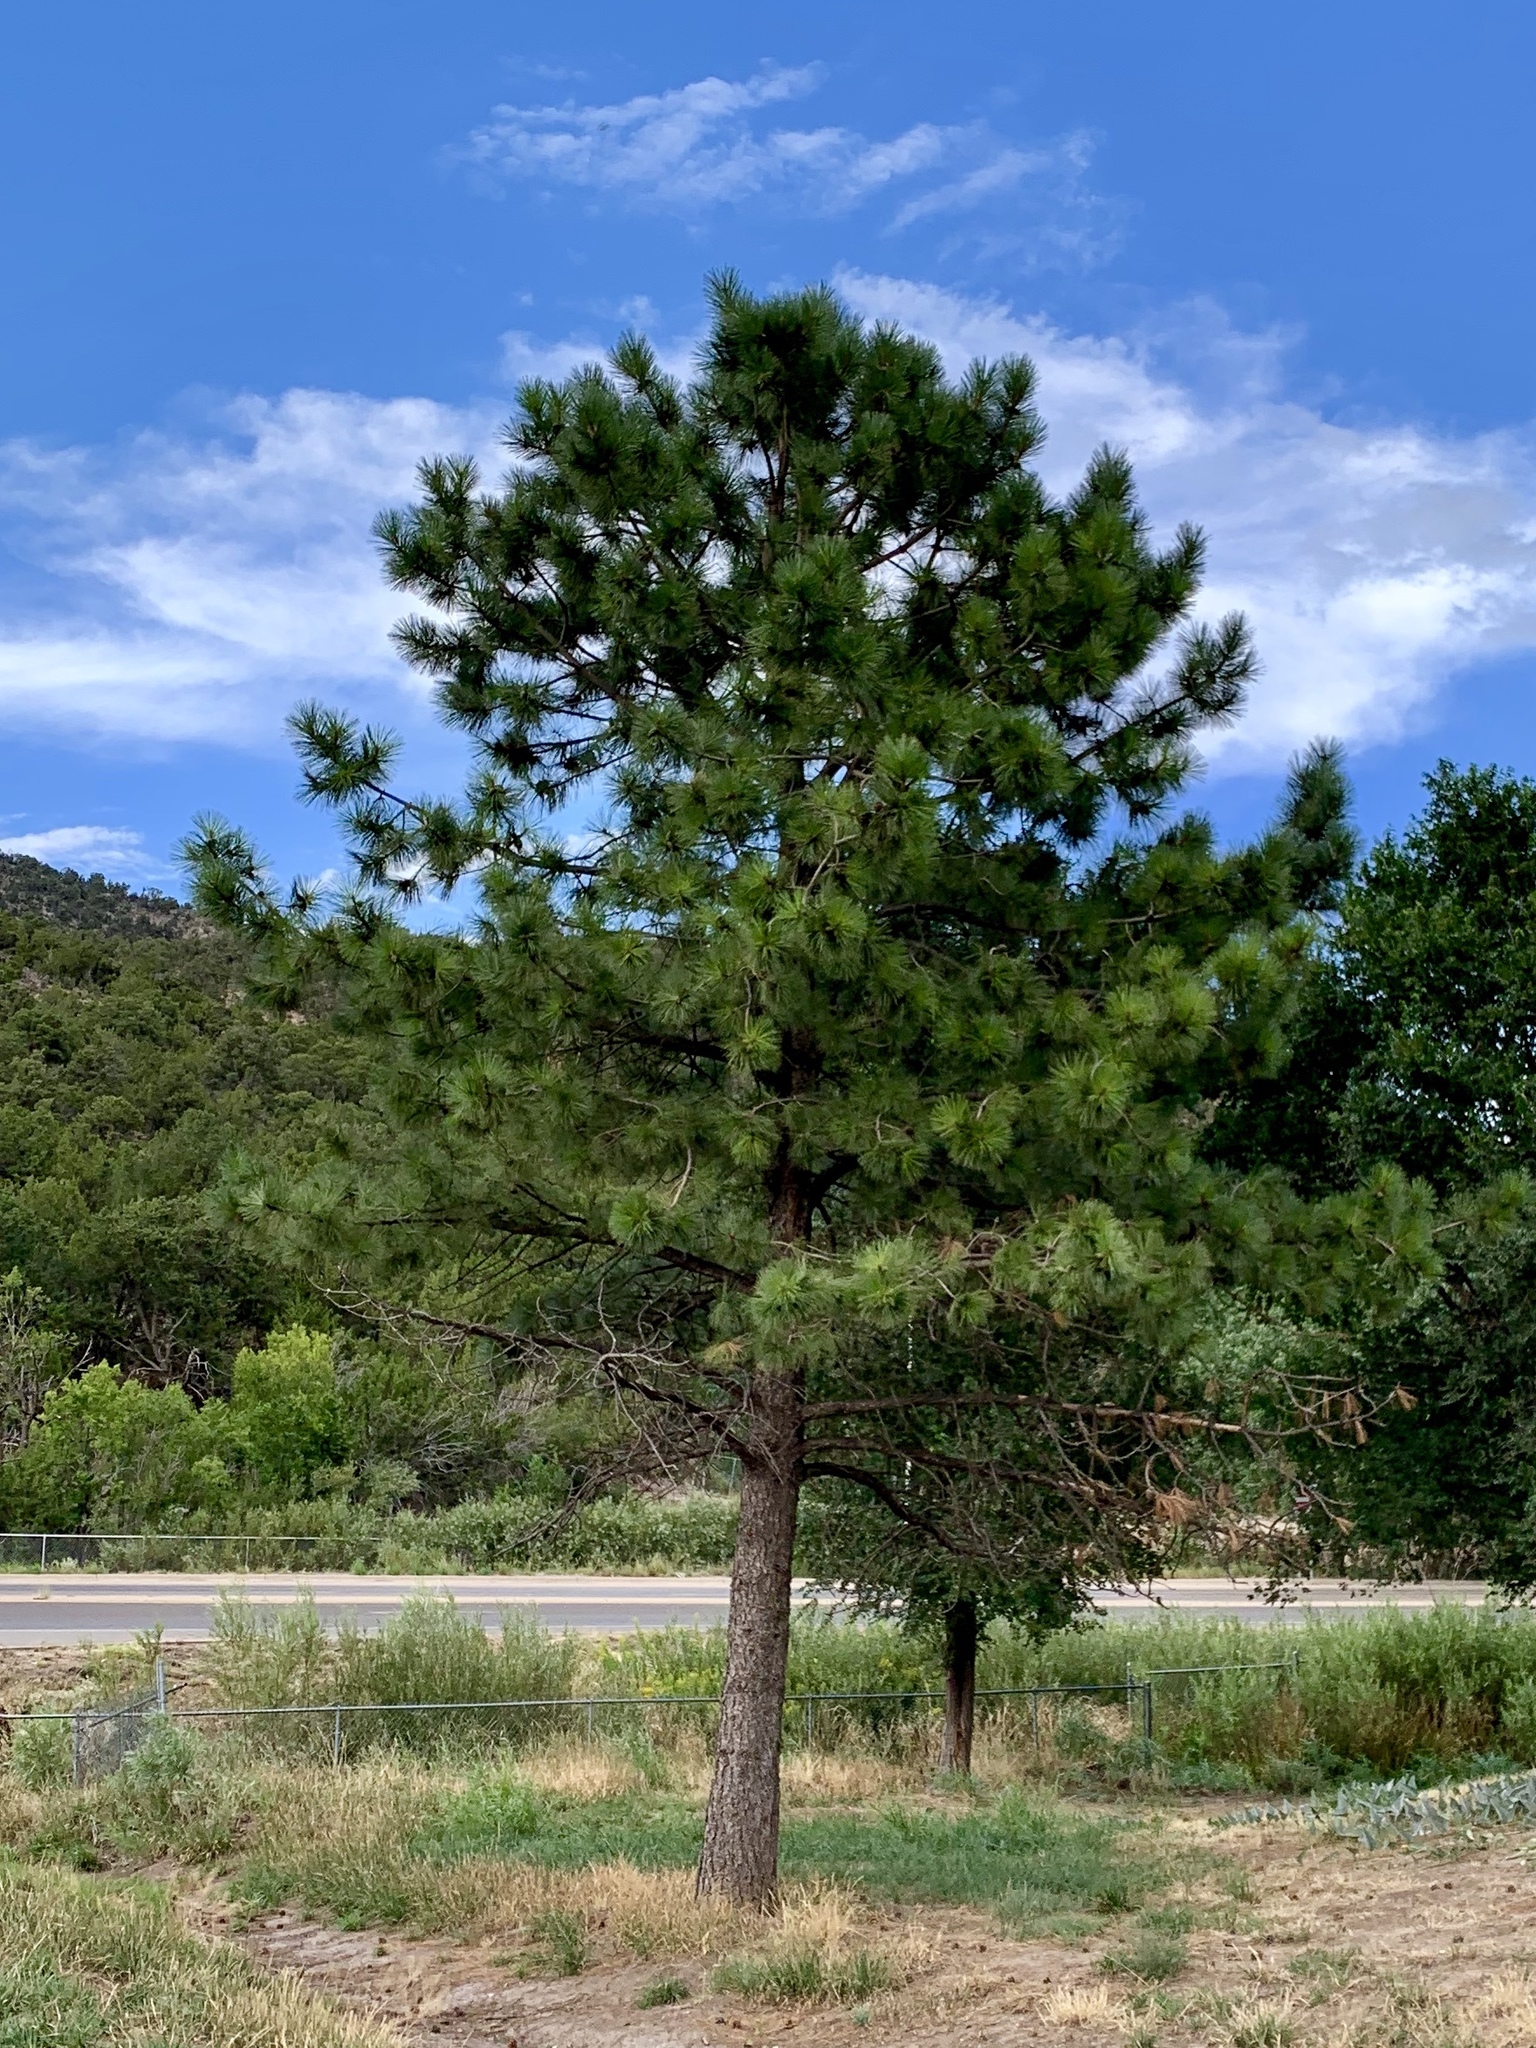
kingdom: Plantae
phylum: Tracheophyta
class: Pinopsida
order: Pinales
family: Pinaceae
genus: Pinus
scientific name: Pinus ponderosa
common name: Western yellow-pine
